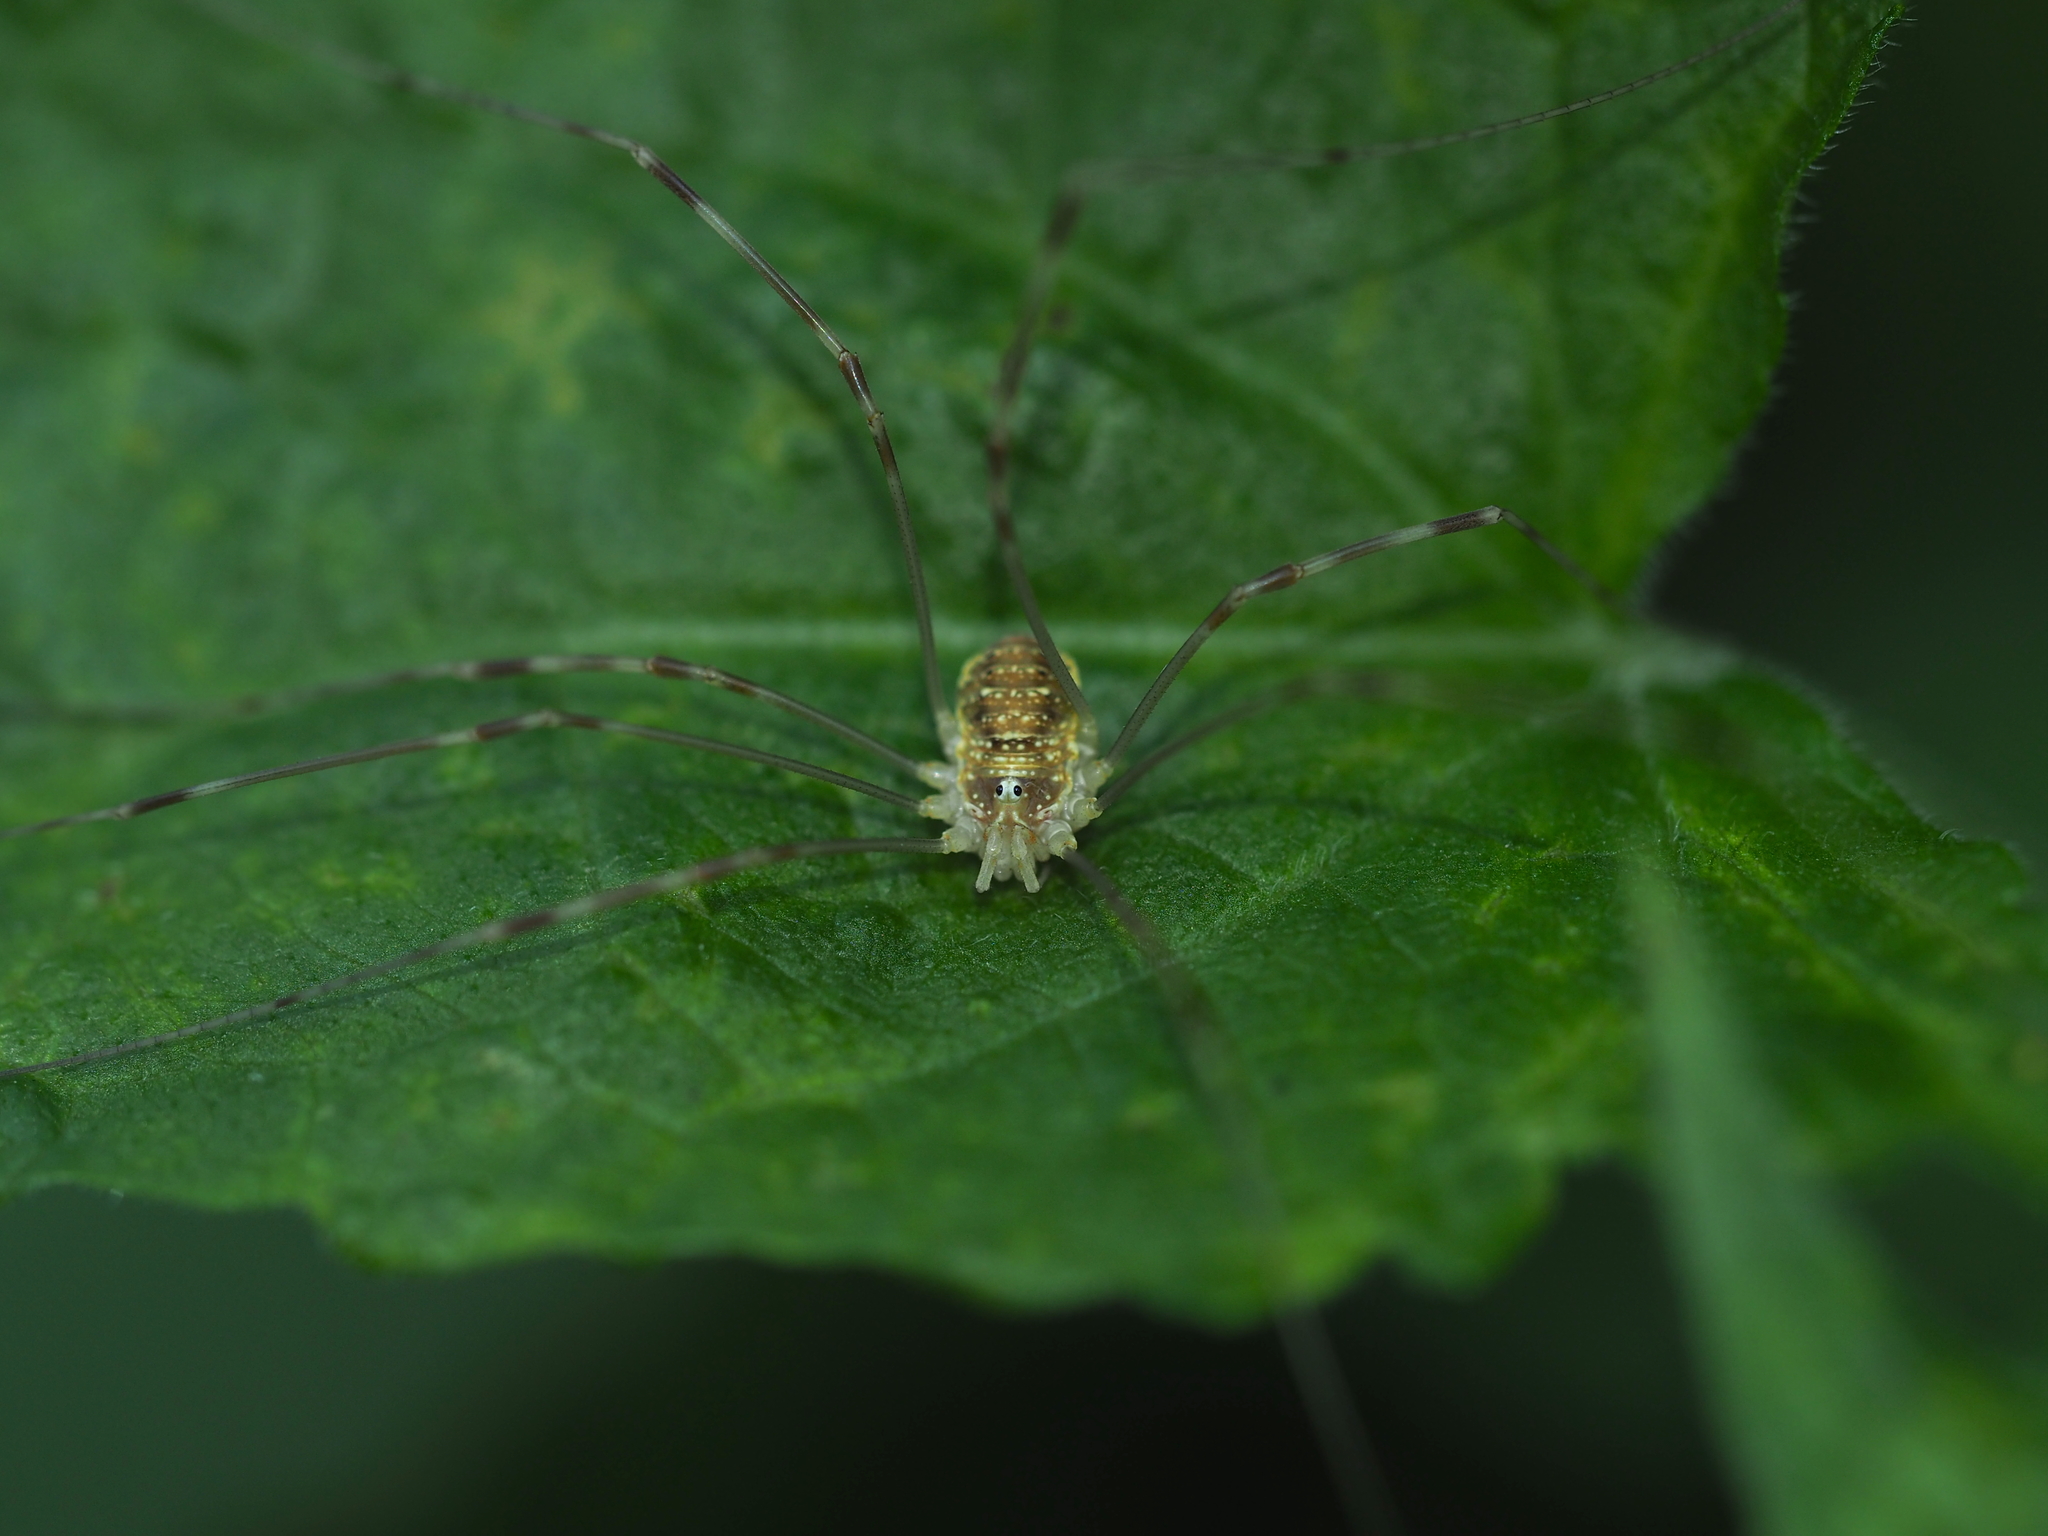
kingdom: Animalia
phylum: Arthropoda
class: Arachnida
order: Opiliones
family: Phalangiidae
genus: Opilio
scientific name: Opilio canestrinii
